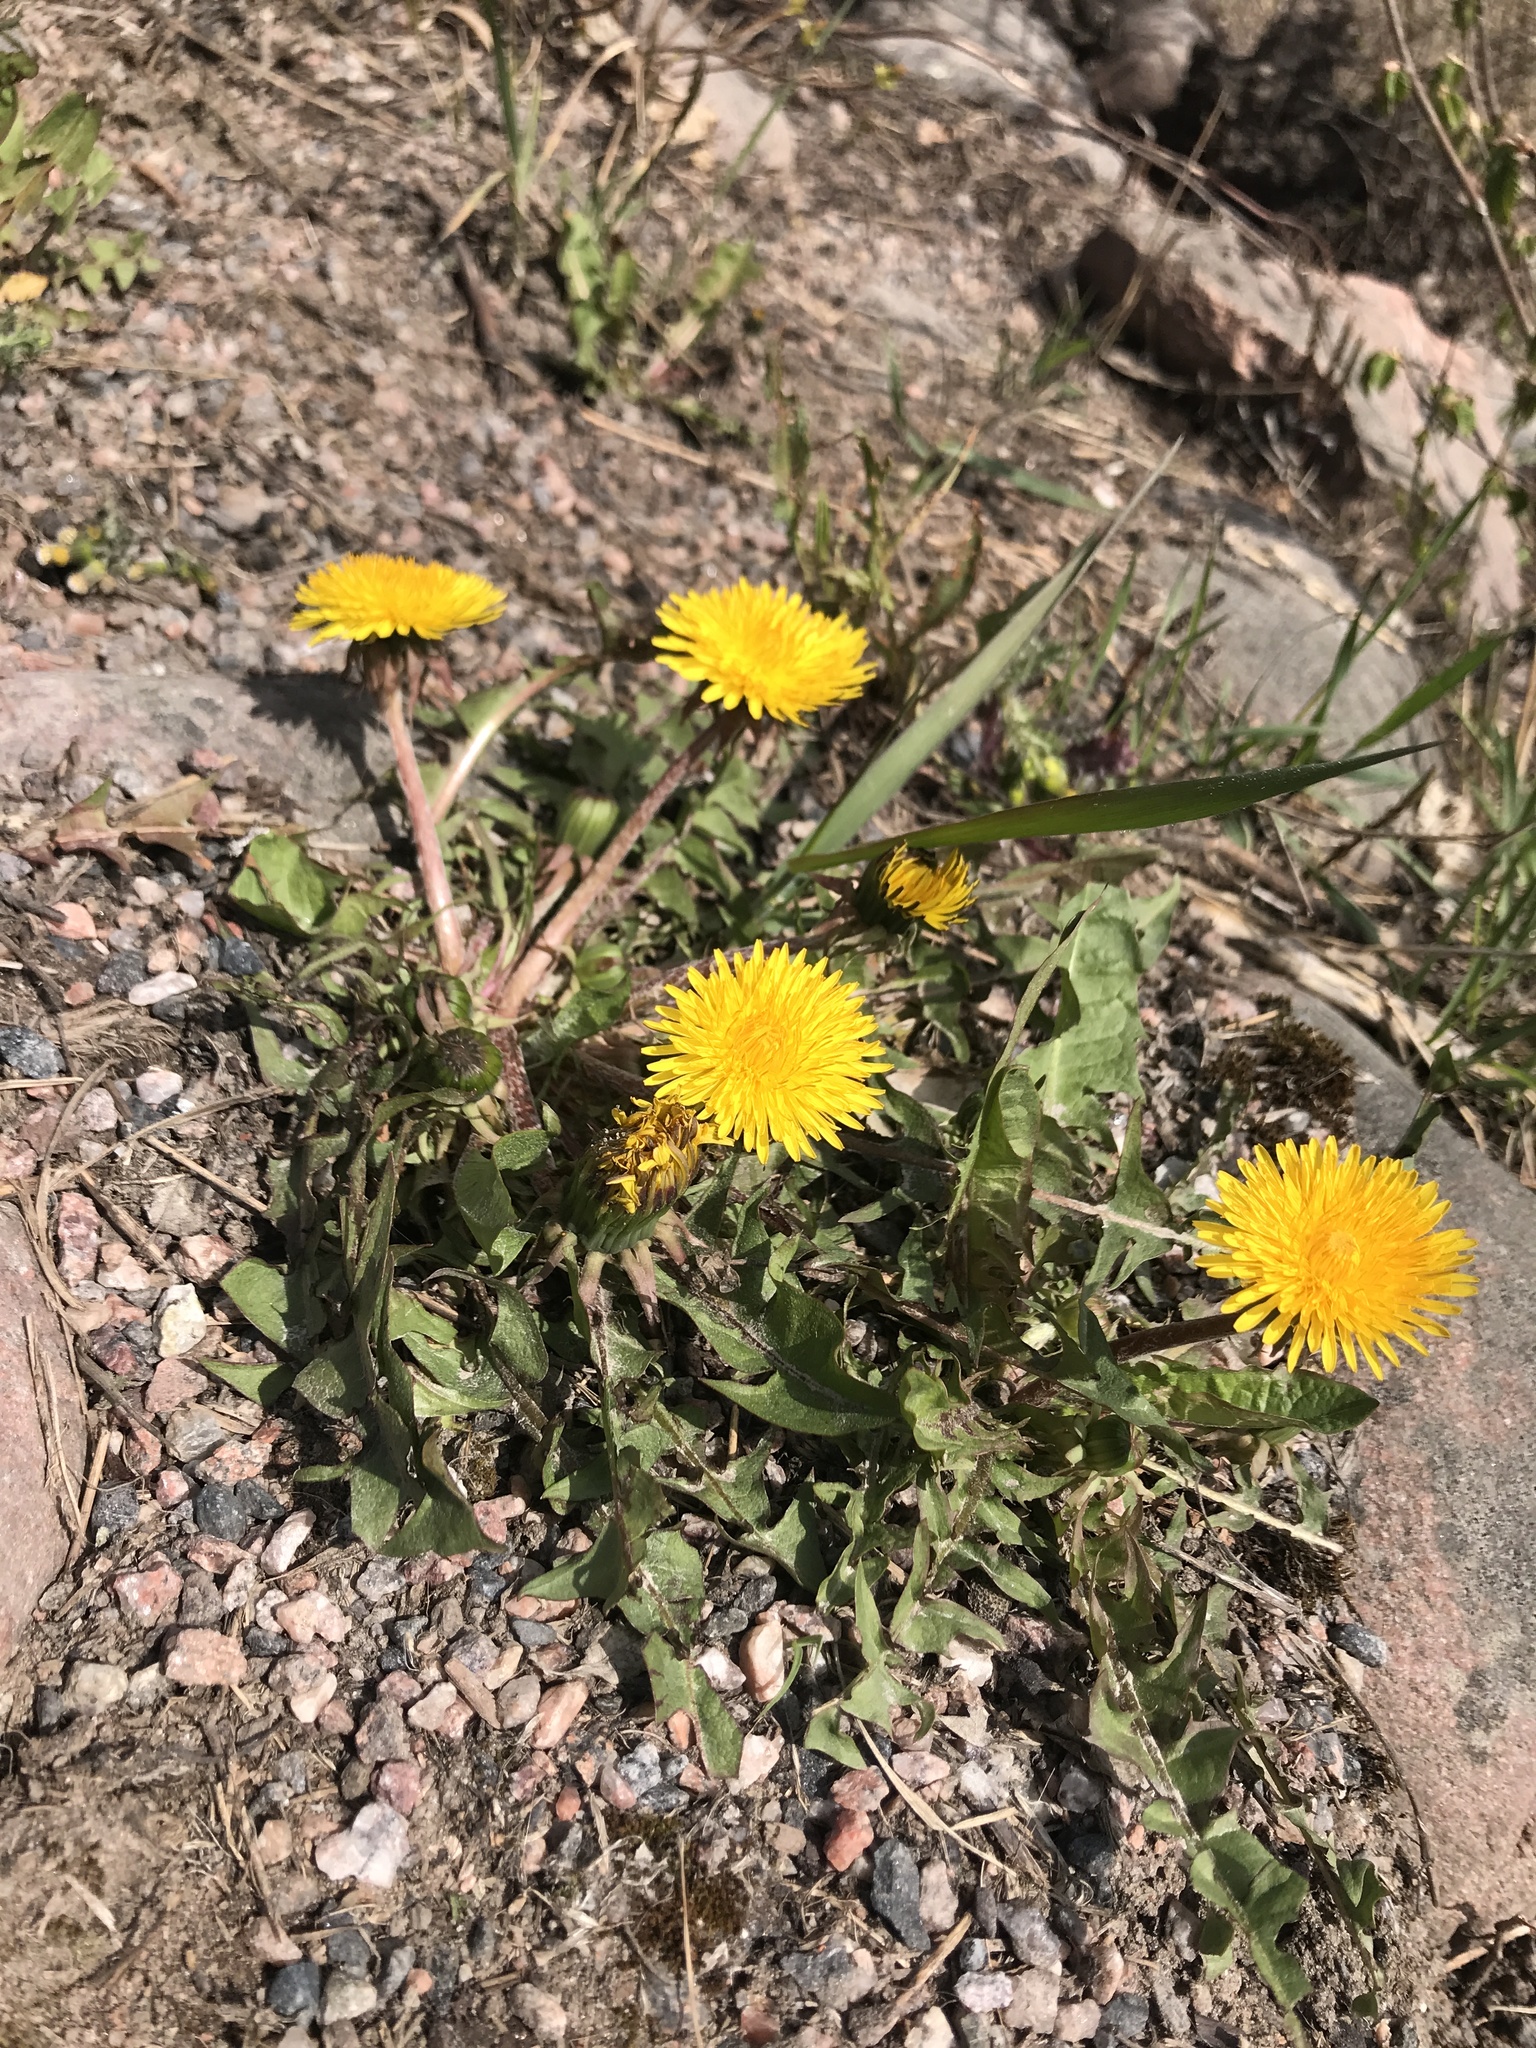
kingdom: Plantae
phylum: Tracheophyta
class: Magnoliopsida
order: Asterales
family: Asteraceae
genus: Taraxacum
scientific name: Taraxacum
